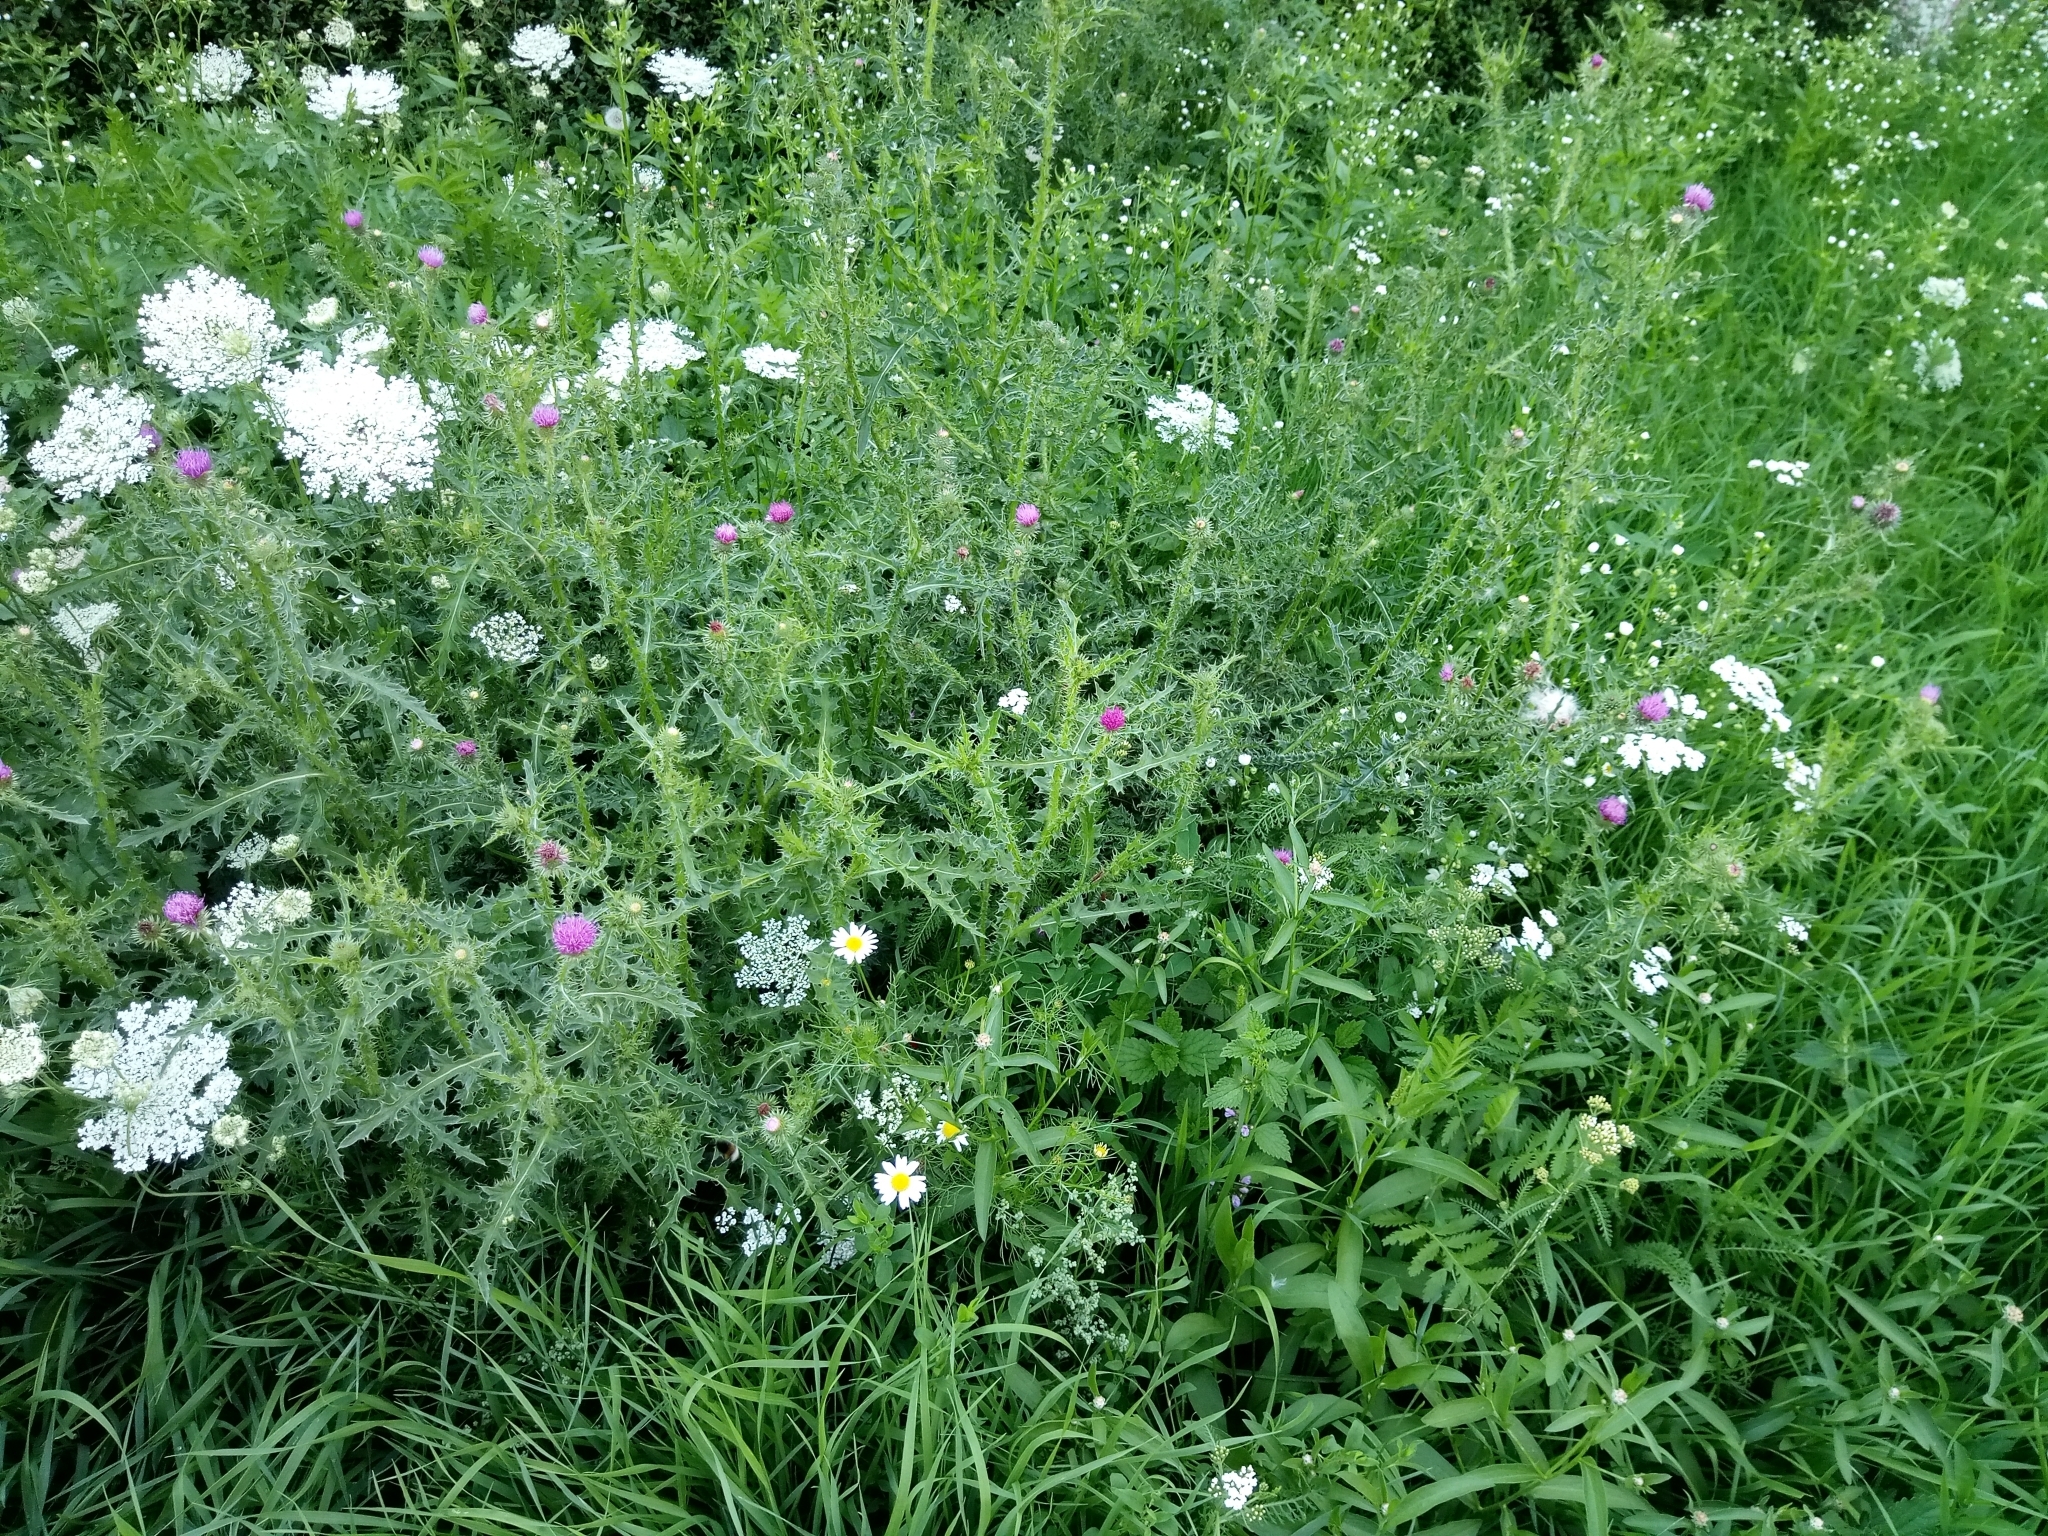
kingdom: Plantae
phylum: Tracheophyta
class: Magnoliopsida
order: Asterales
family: Asteraceae
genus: Carduus
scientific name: Carduus acanthoides
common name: Plumeless thistle
